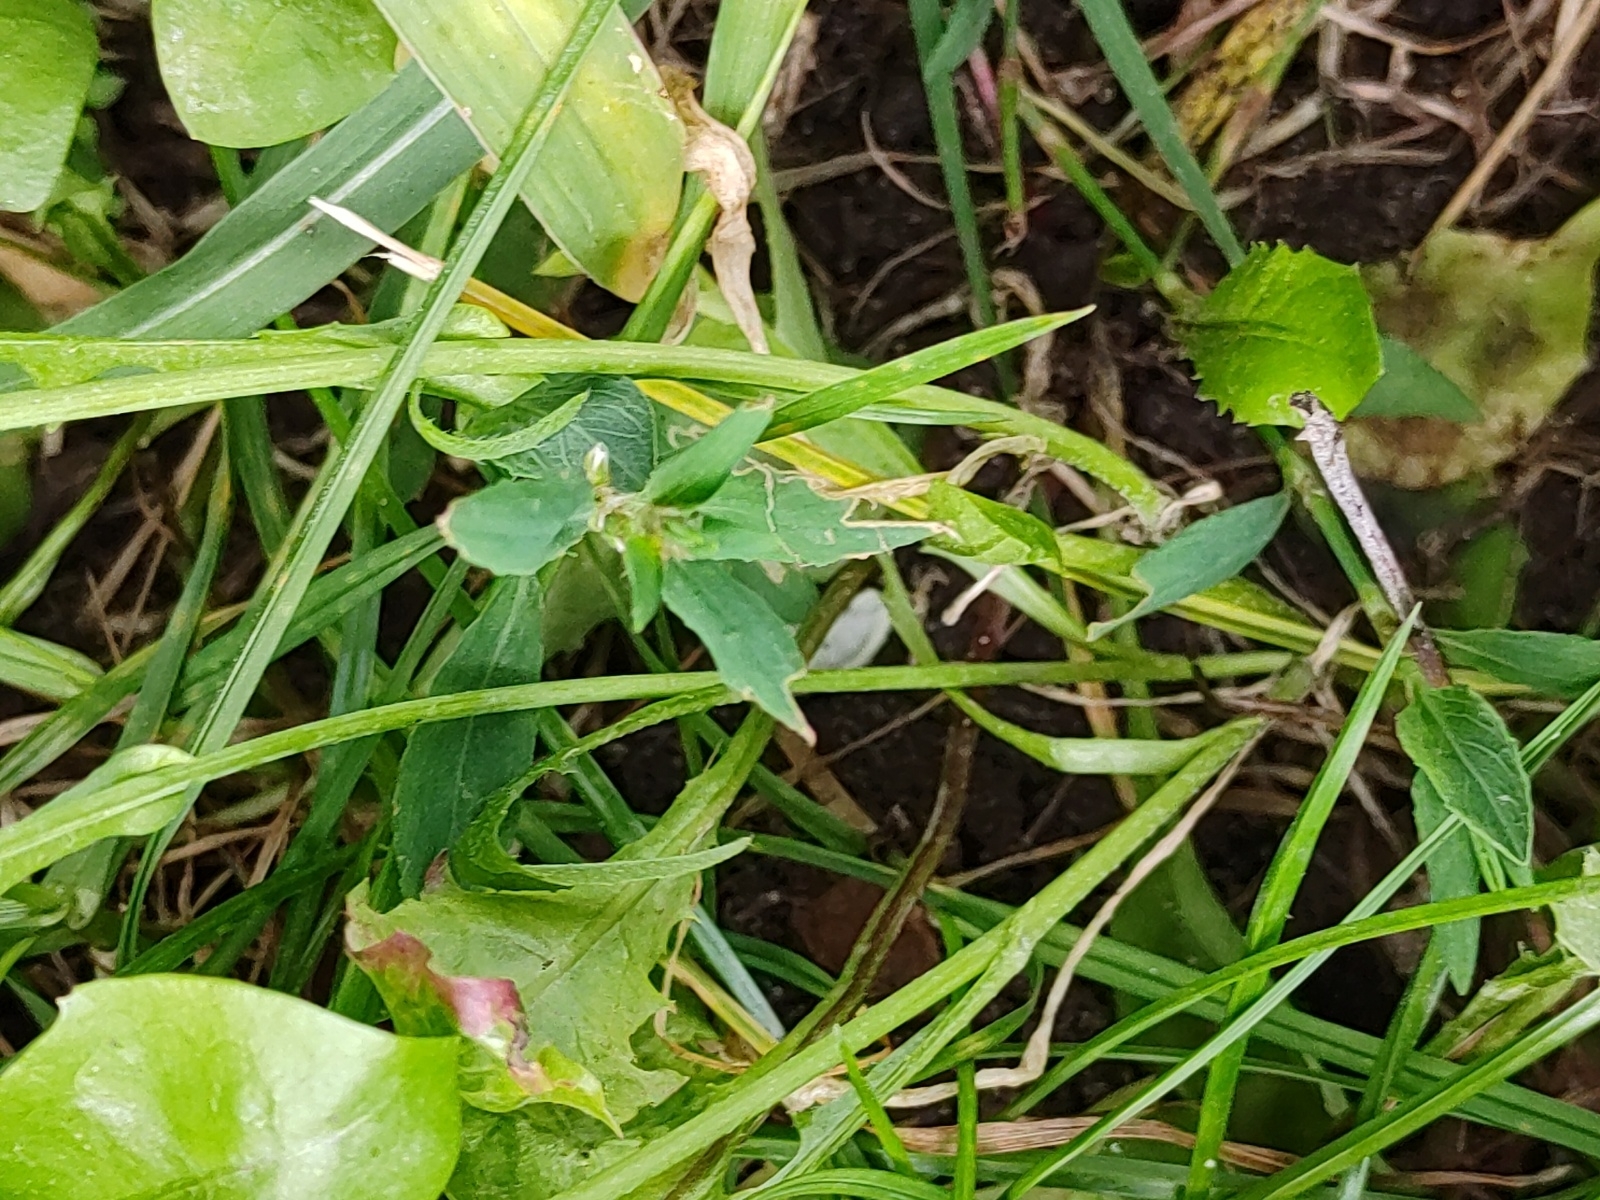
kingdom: Plantae
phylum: Tracheophyta
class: Magnoliopsida
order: Brassicales
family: Brassicaceae
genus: Capsella
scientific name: Capsella bursa-pastoris
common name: Shepherd's purse
